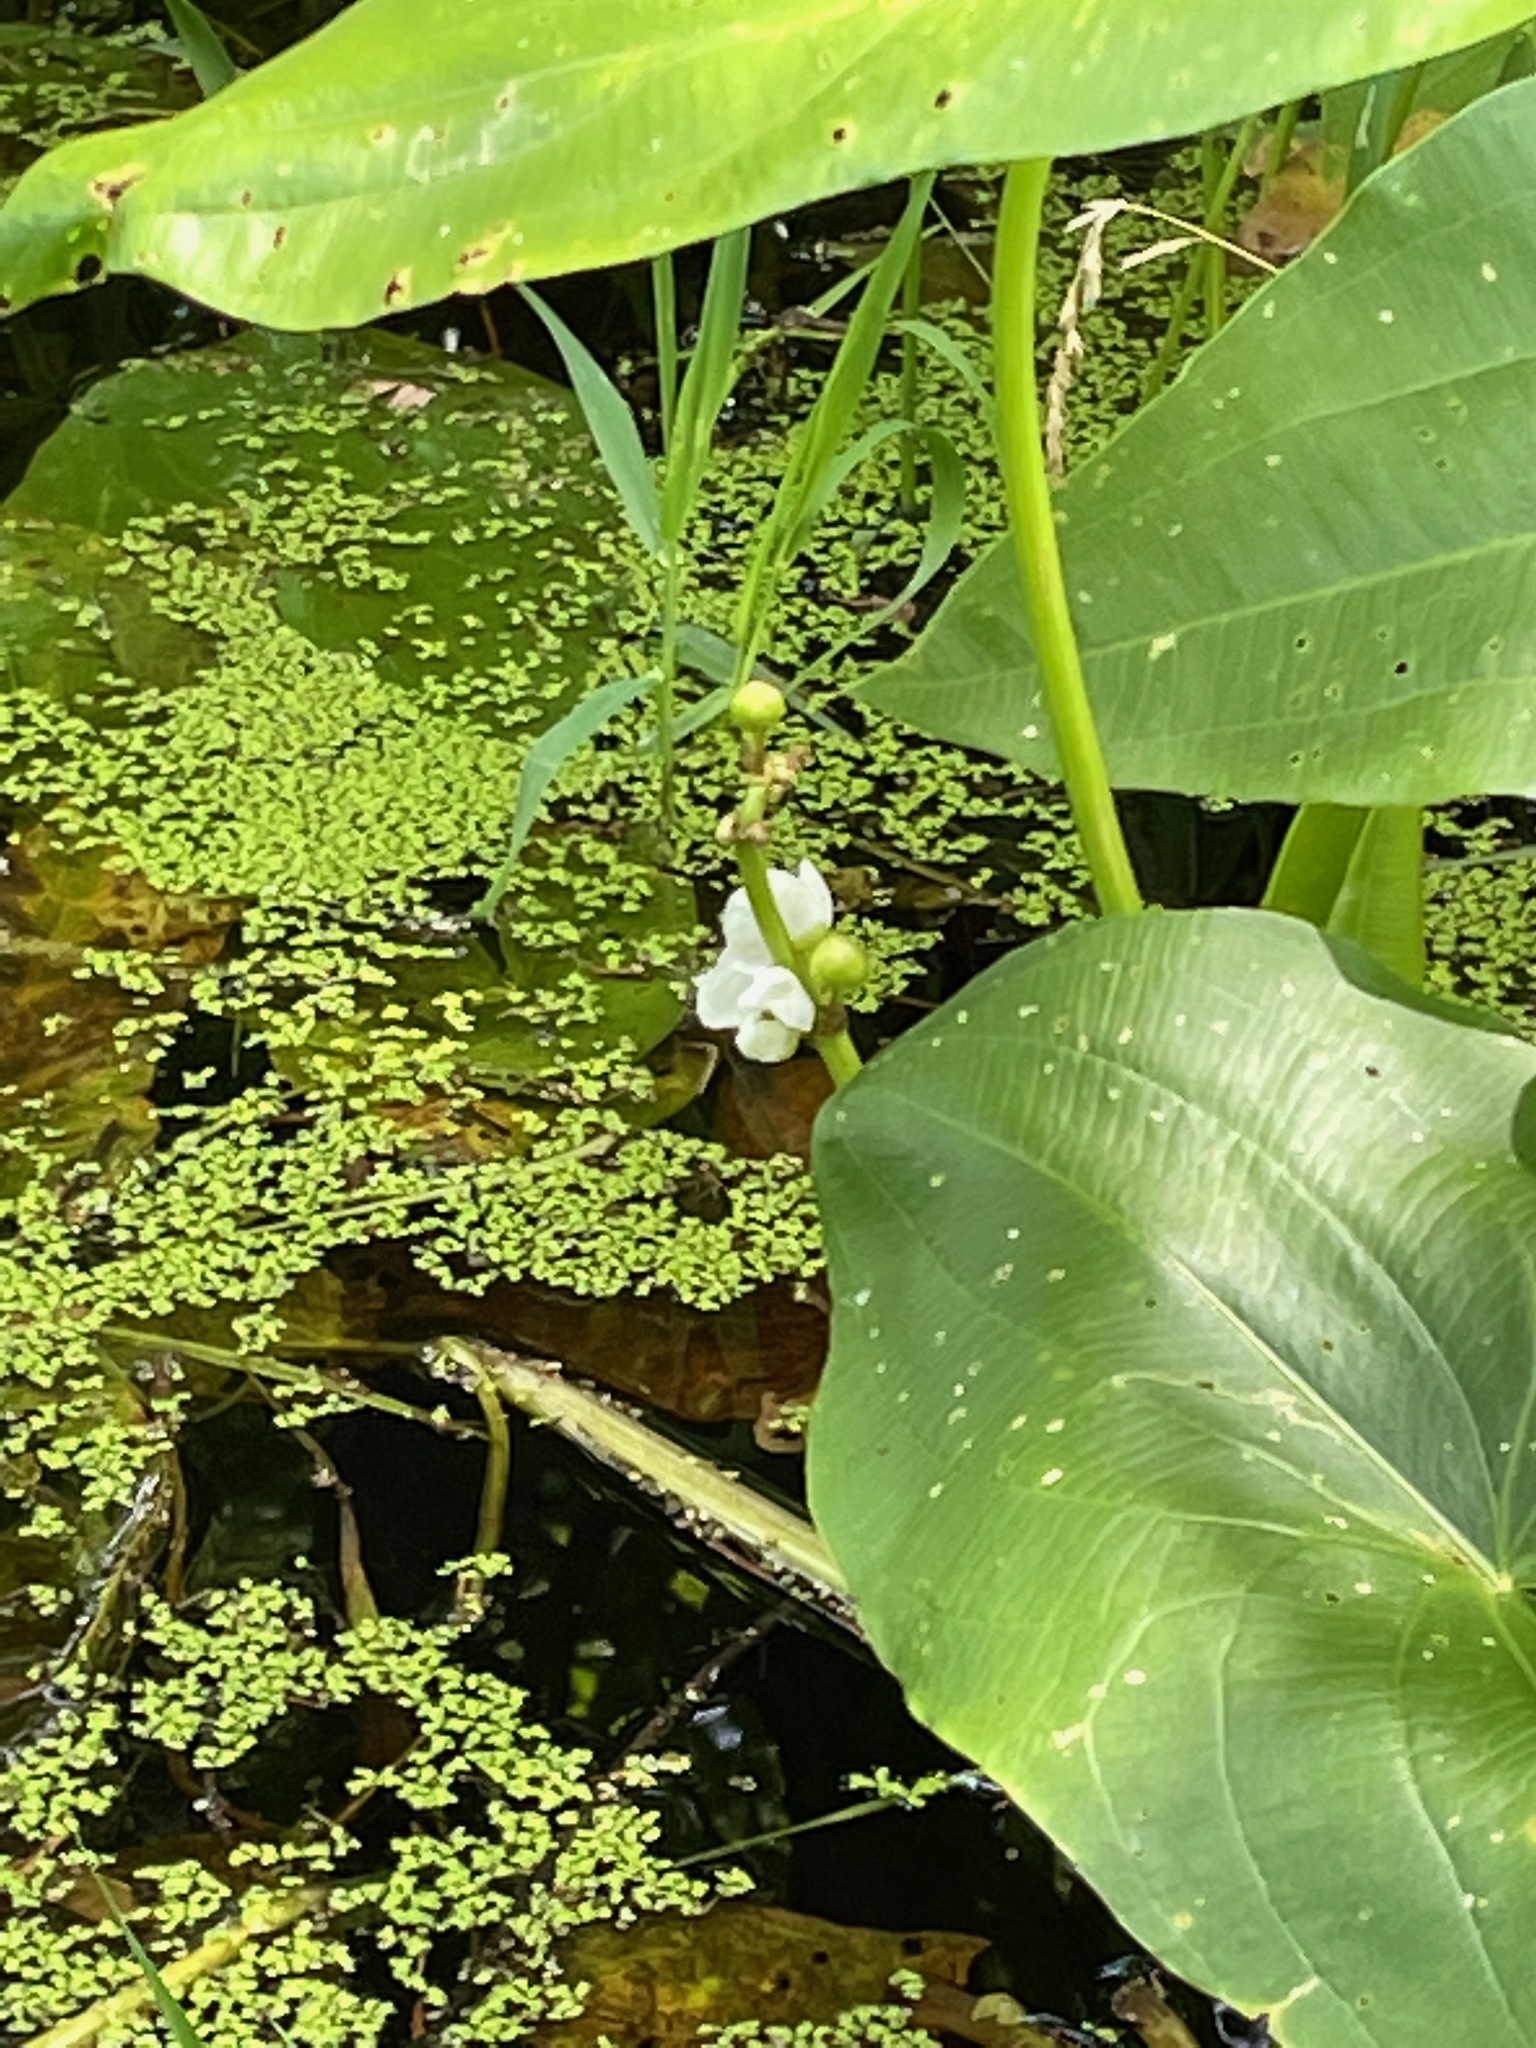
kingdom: Plantae
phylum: Tracheophyta
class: Liliopsida
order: Alismatales
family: Alismataceae
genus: Sagittaria
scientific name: Sagittaria latifolia
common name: Duck-potato
